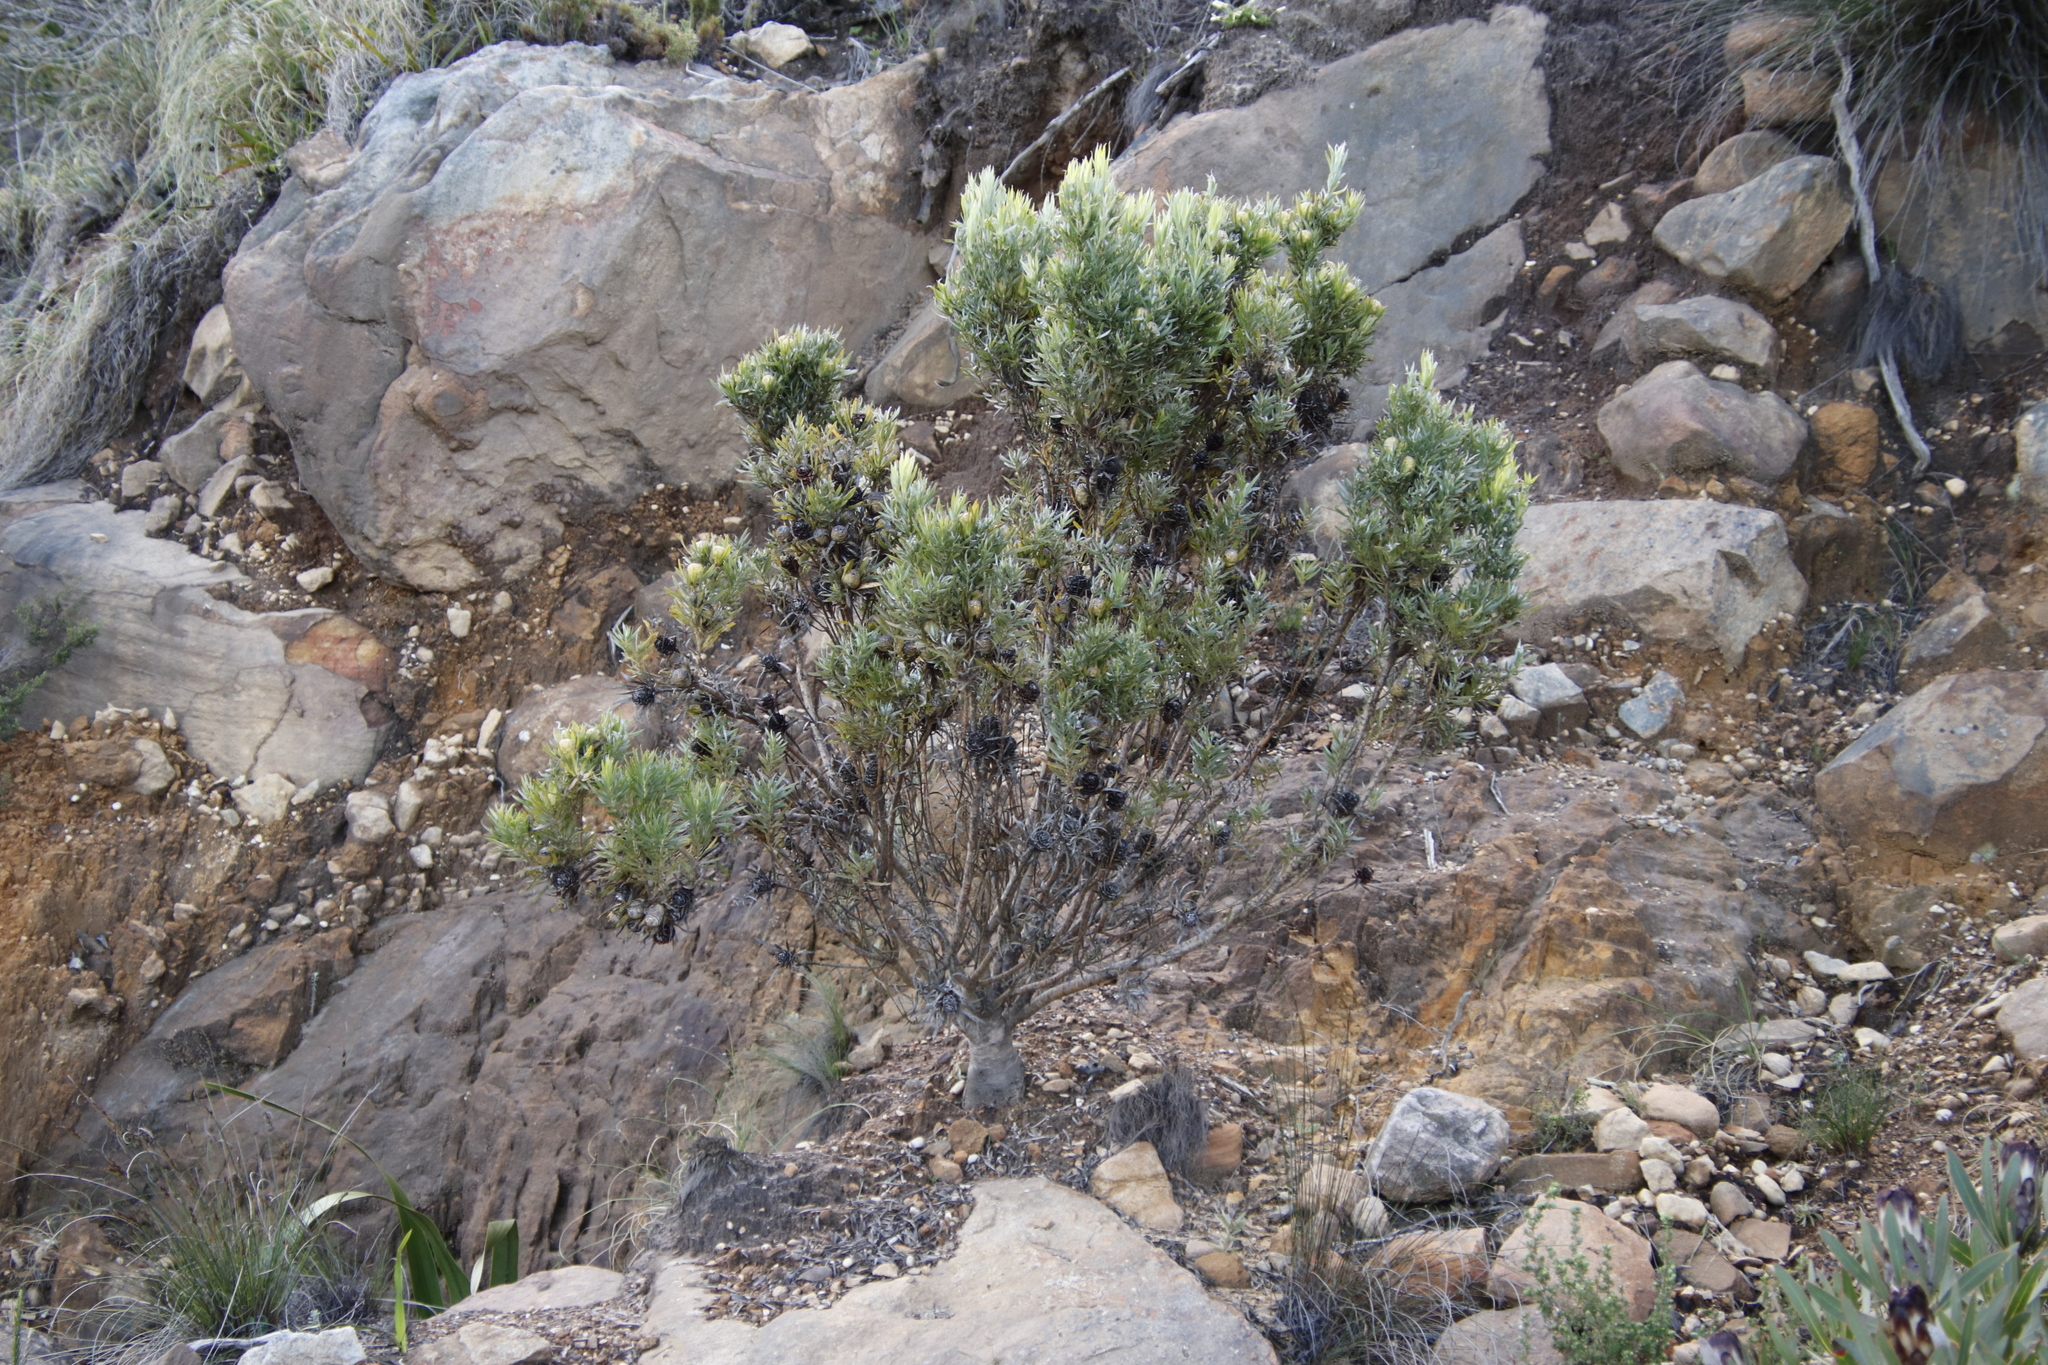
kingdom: Plantae
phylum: Tracheophyta
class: Magnoliopsida
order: Proteales
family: Proteaceae
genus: Leucadendron
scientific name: Leucadendron xanthoconus
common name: Sickle-leaf conebush
